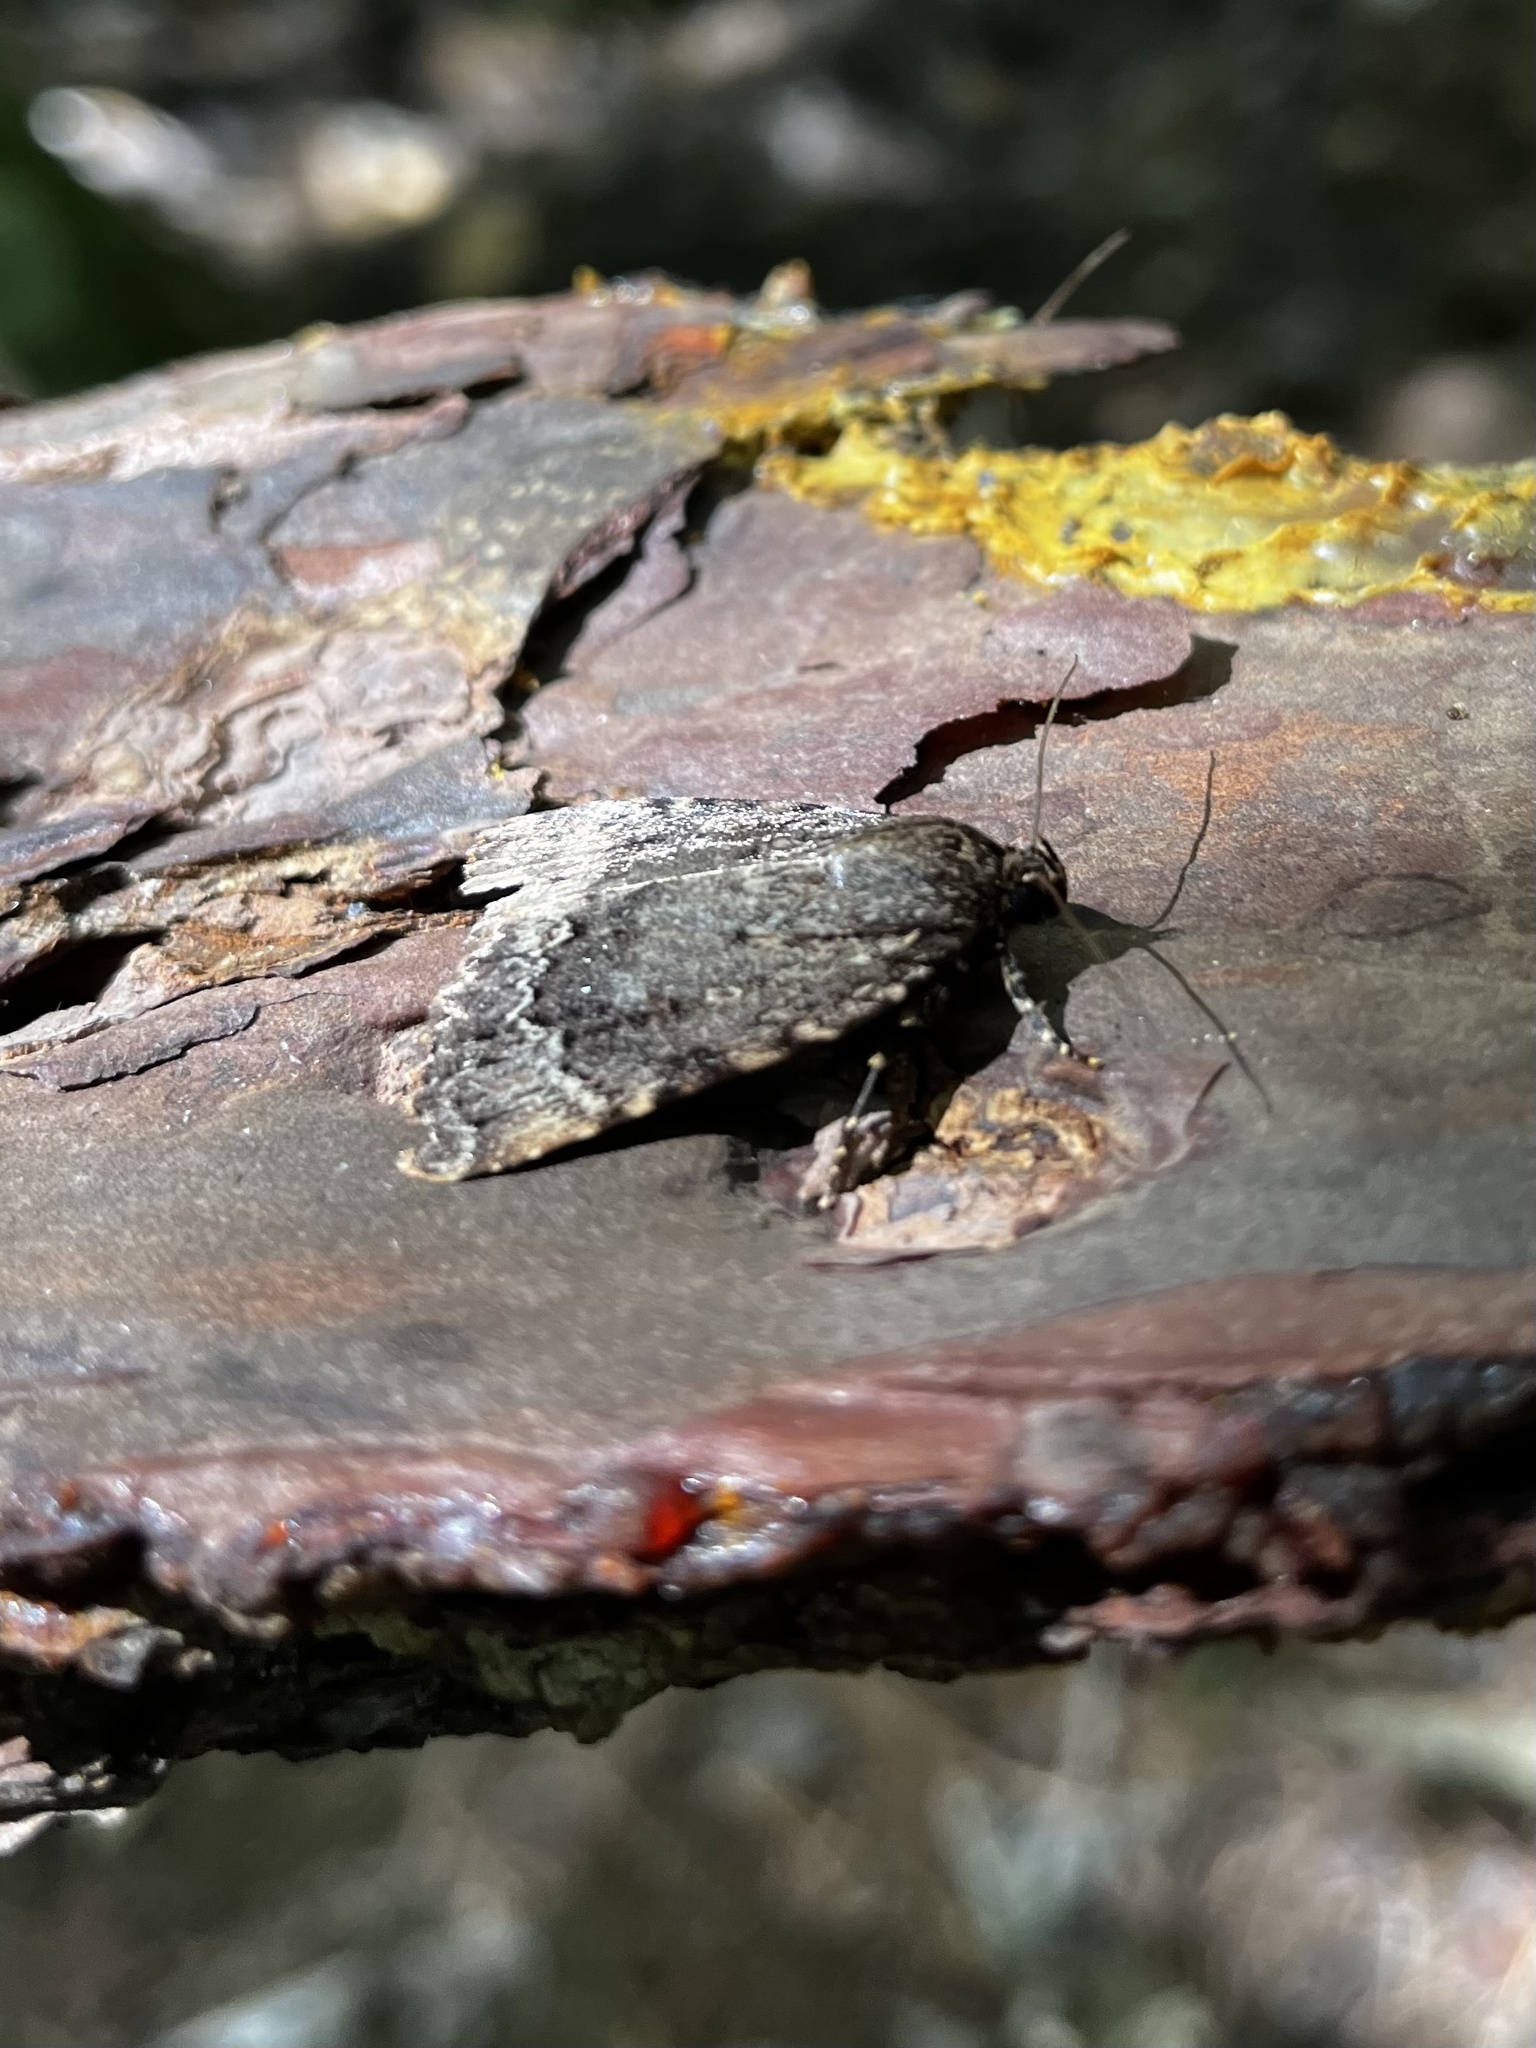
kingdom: Animalia
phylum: Arthropoda
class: Insecta
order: Lepidoptera
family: Noctuidae
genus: Amphipyra
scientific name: Amphipyra pyramidoides
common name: American copper underwing
